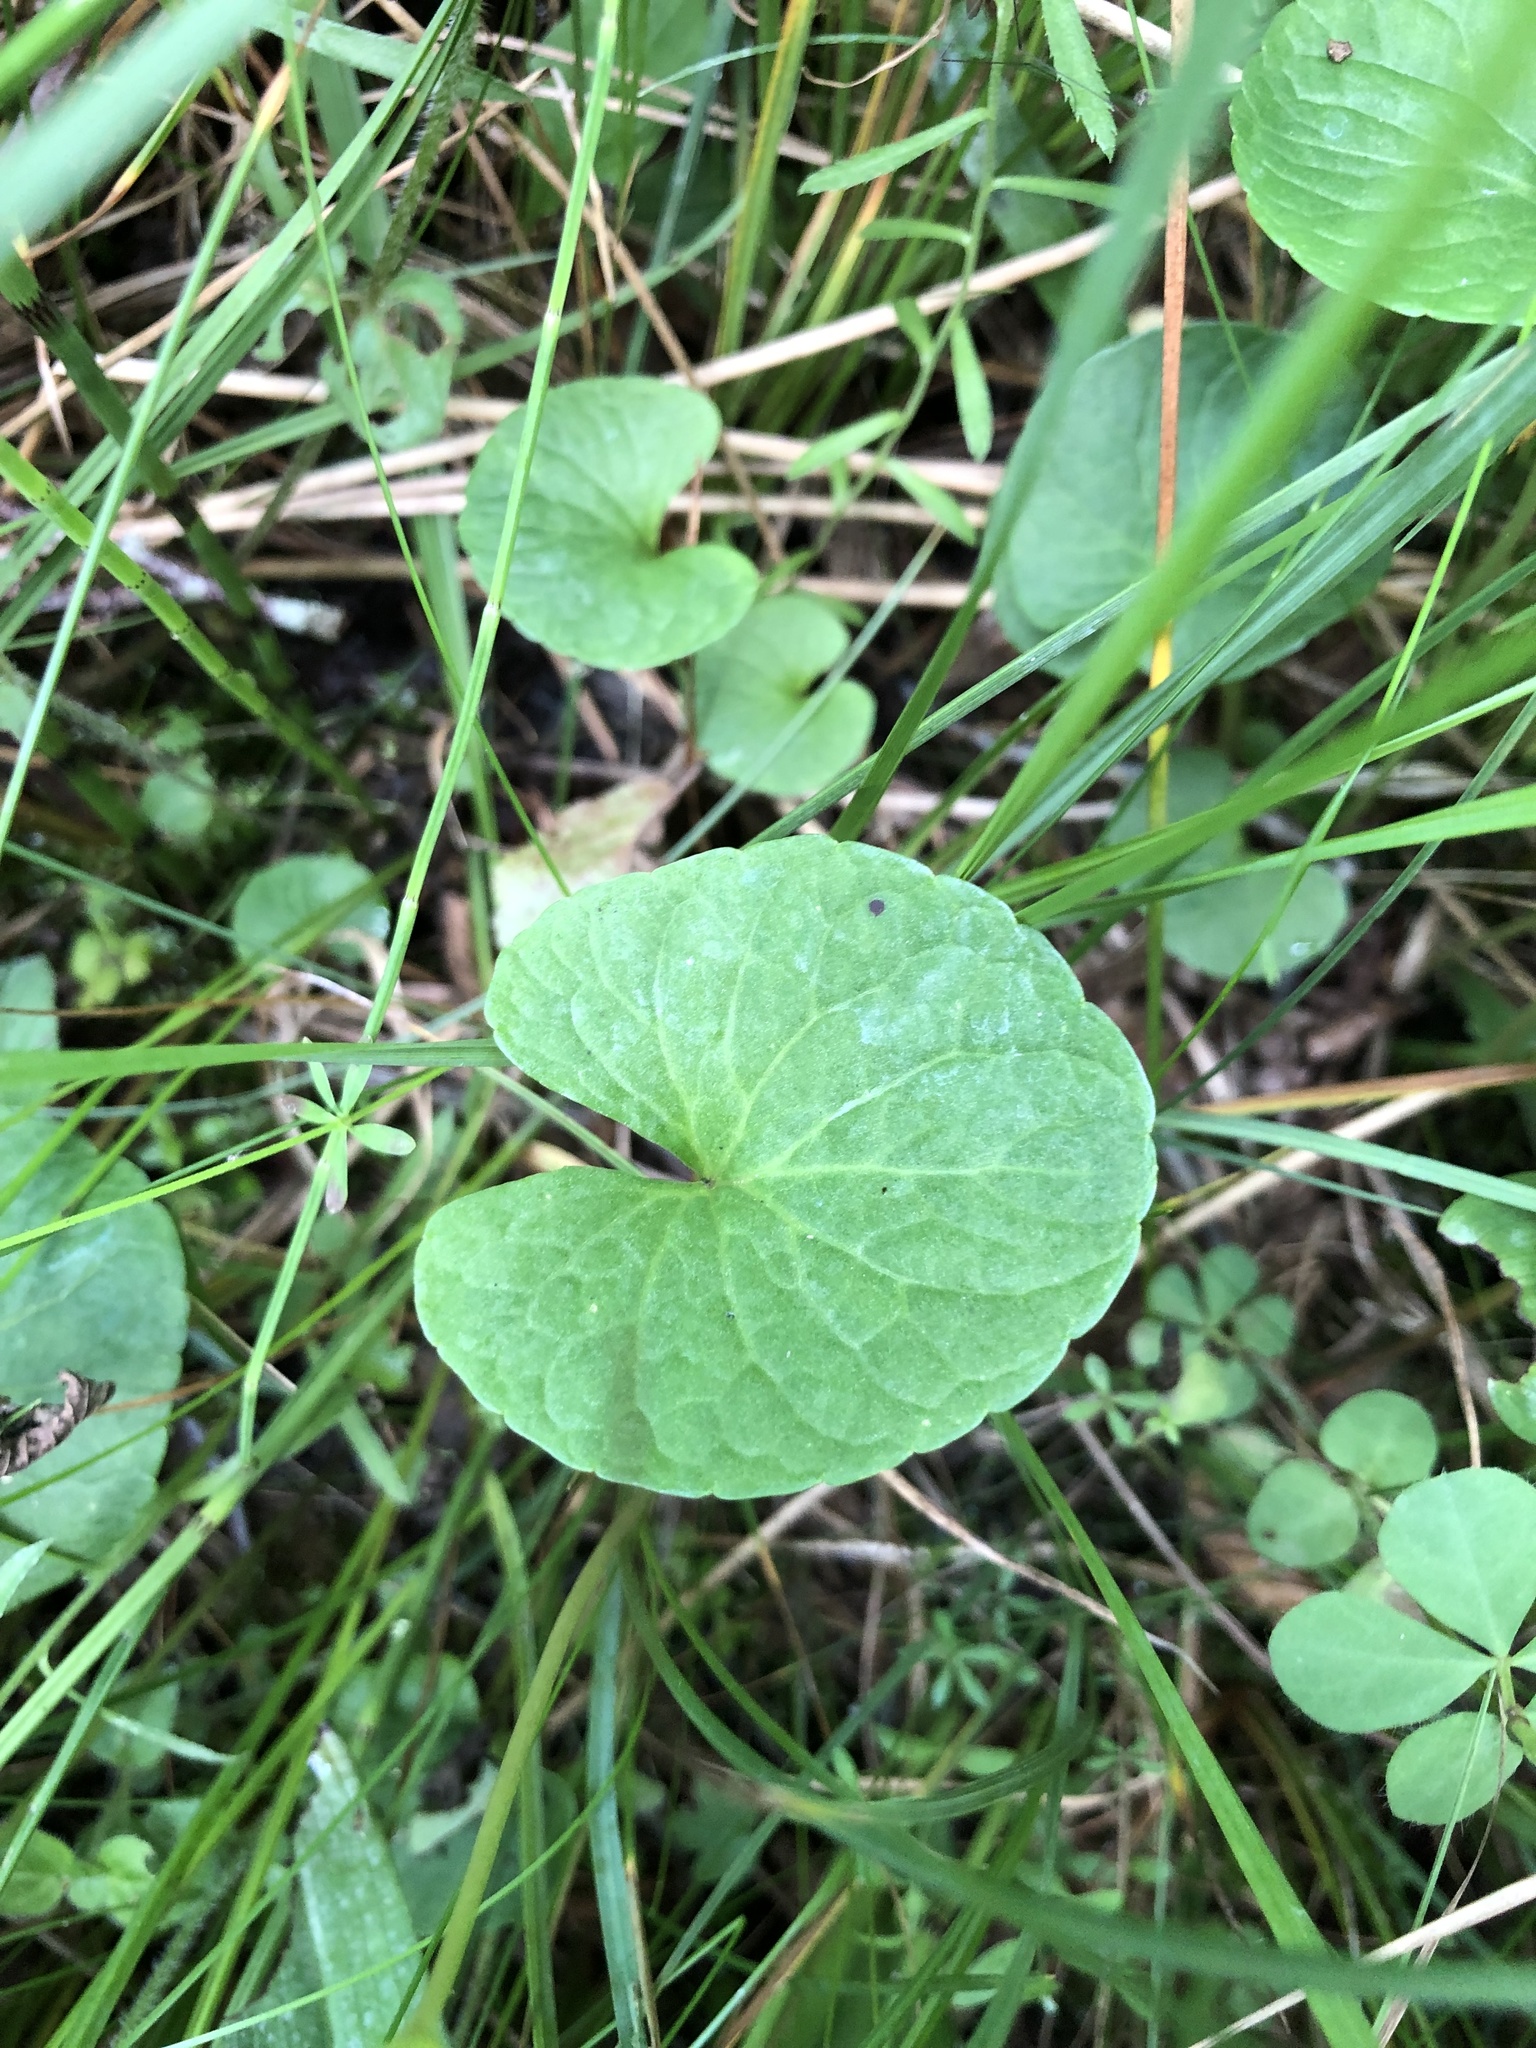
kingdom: Plantae
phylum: Tracheophyta
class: Magnoliopsida
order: Malpighiales
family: Violaceae
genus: Viola
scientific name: Viola palustris
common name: Marsh violet
